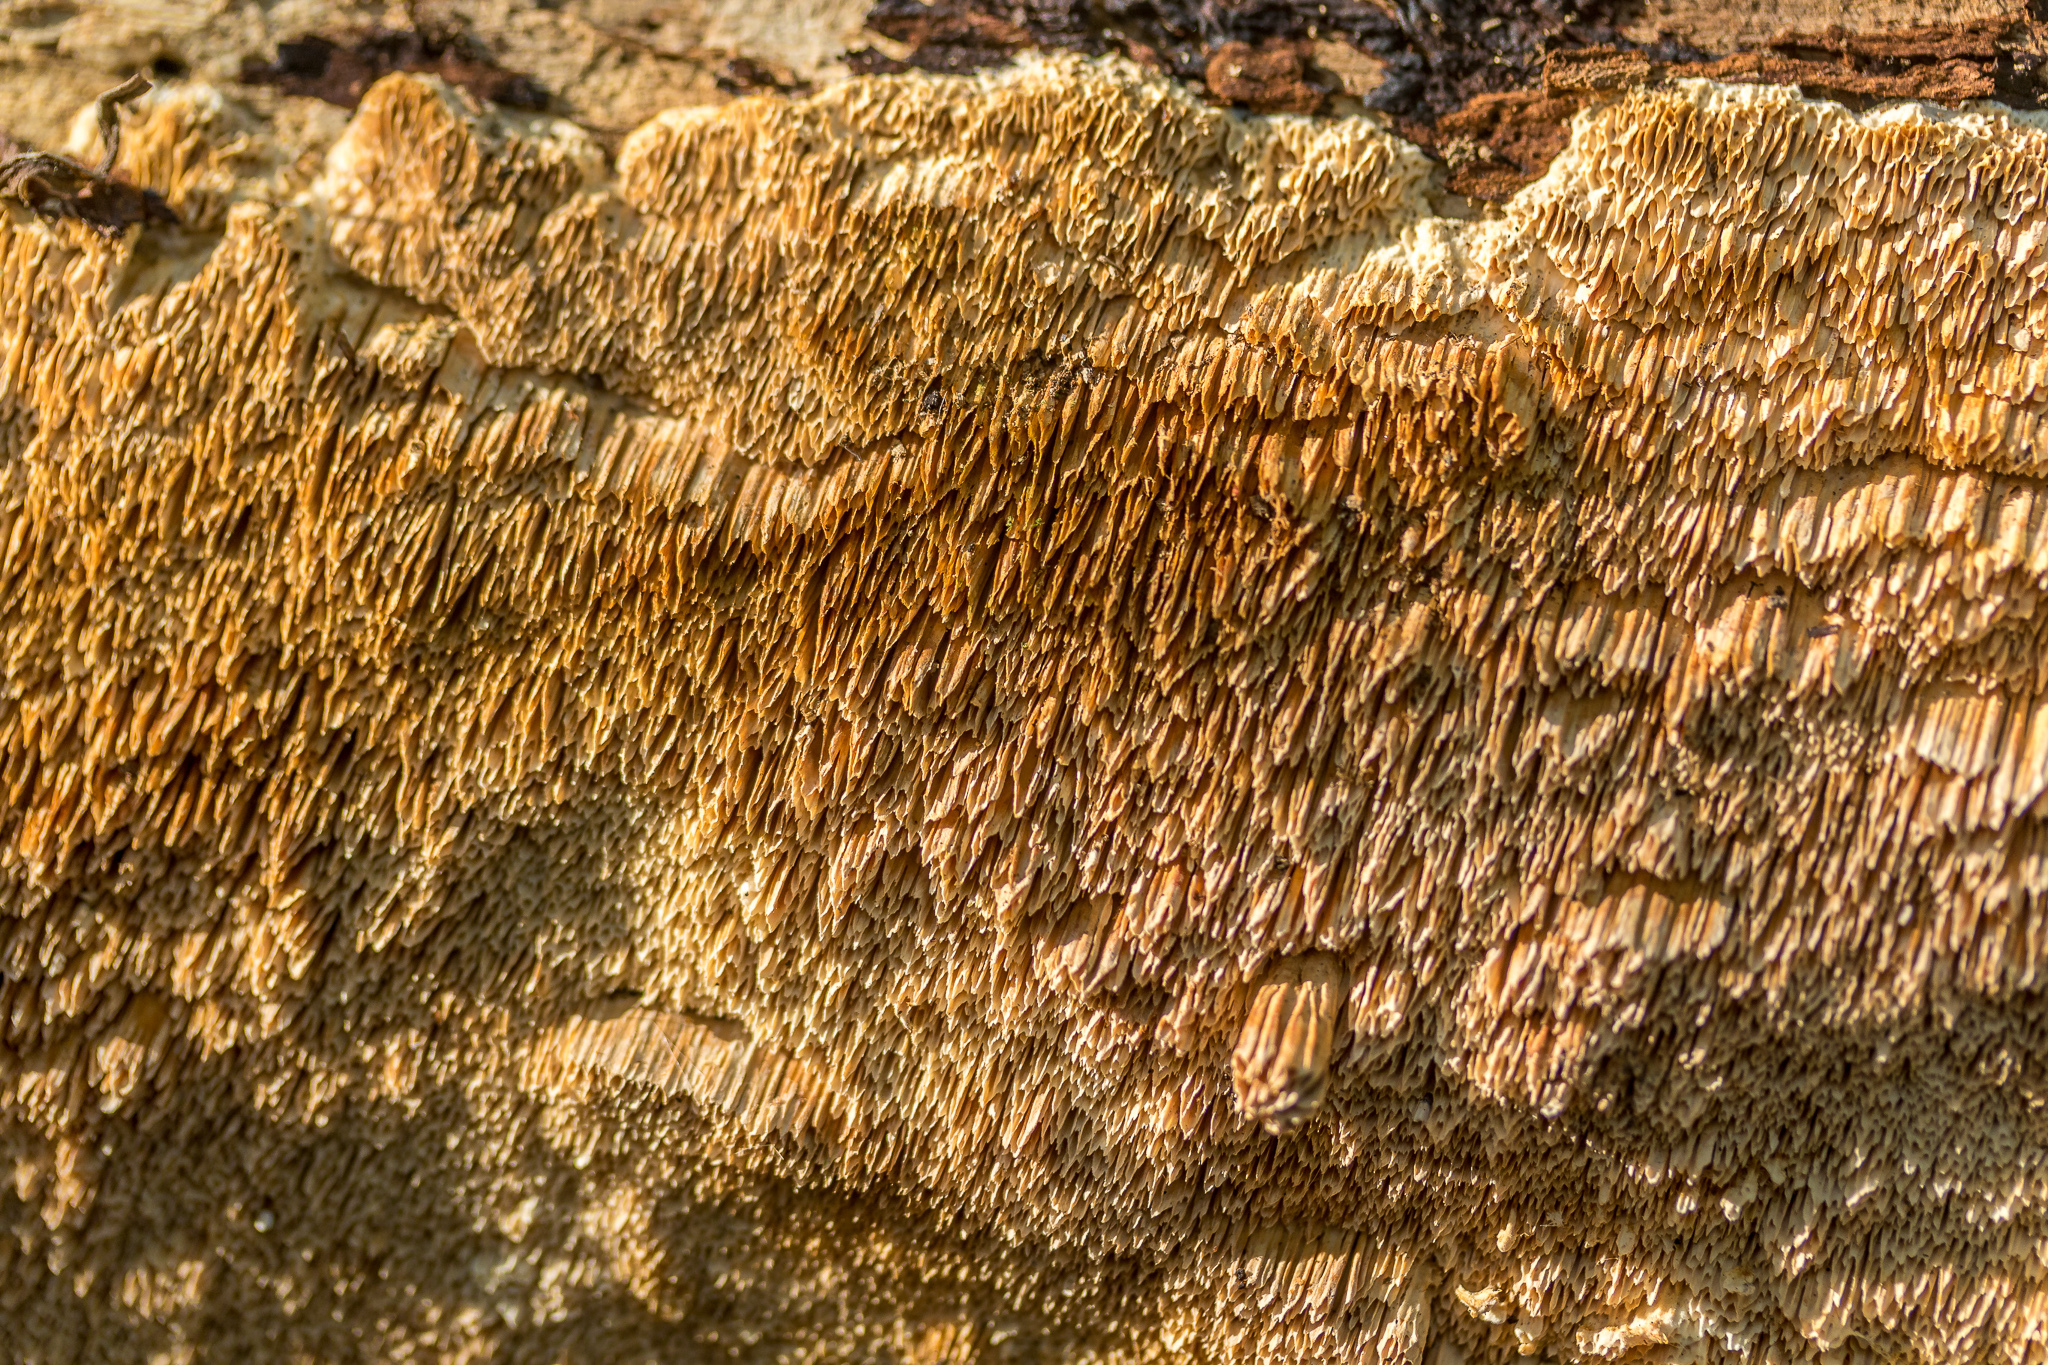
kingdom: Fungi
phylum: Basidiomycota
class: Agaricomycetes
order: Polyporales
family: Steccherinaceae
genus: Steccherinum
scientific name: Steccherinum ochraceum
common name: Ochre spreading tooth
